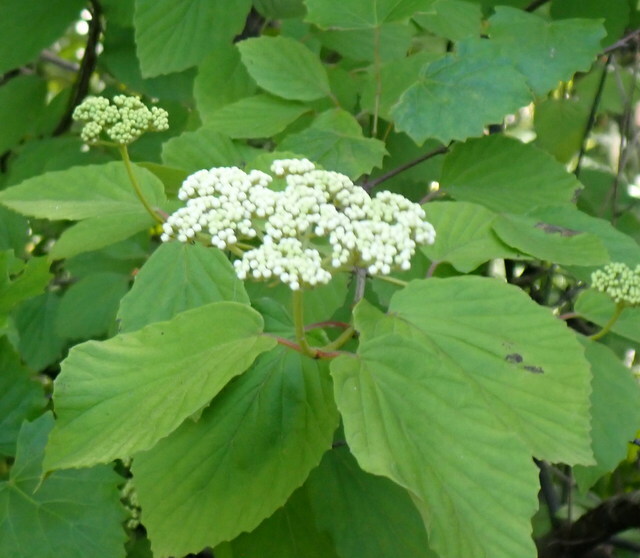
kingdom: Plantae
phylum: Tracheophyta
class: Magnoliopsida
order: Dipsacales
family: Viburnaceae
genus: Viburnum
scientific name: Viburnum scabrellum
